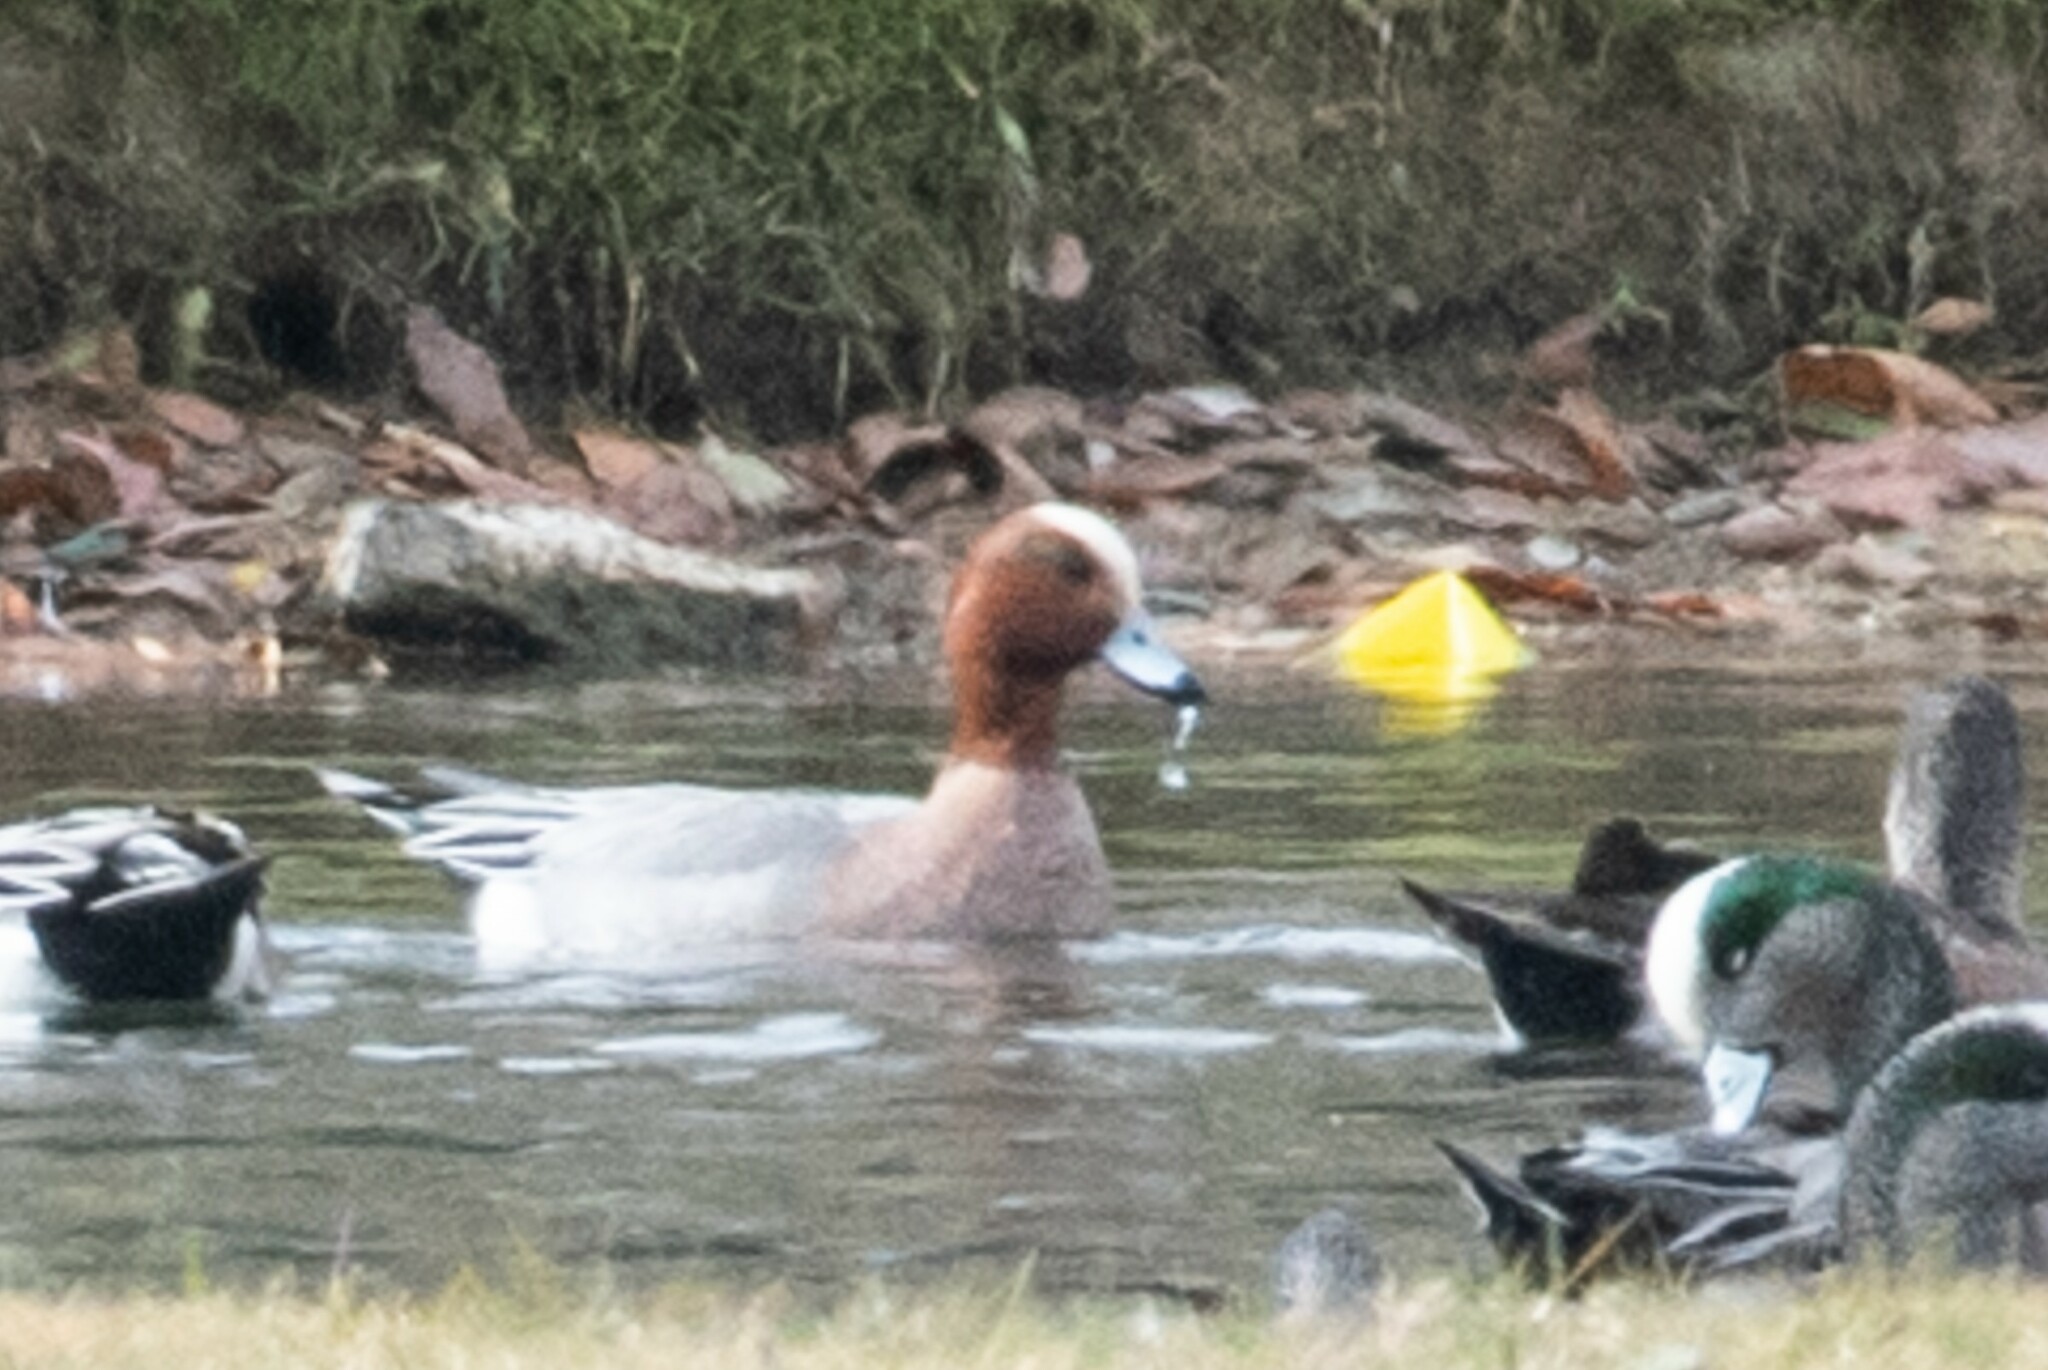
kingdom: Animalia
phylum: Chordata
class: Aves
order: Anseriformes
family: Anatidae
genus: Mareca
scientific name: Mareca penelope
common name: Eurasian wigeon
